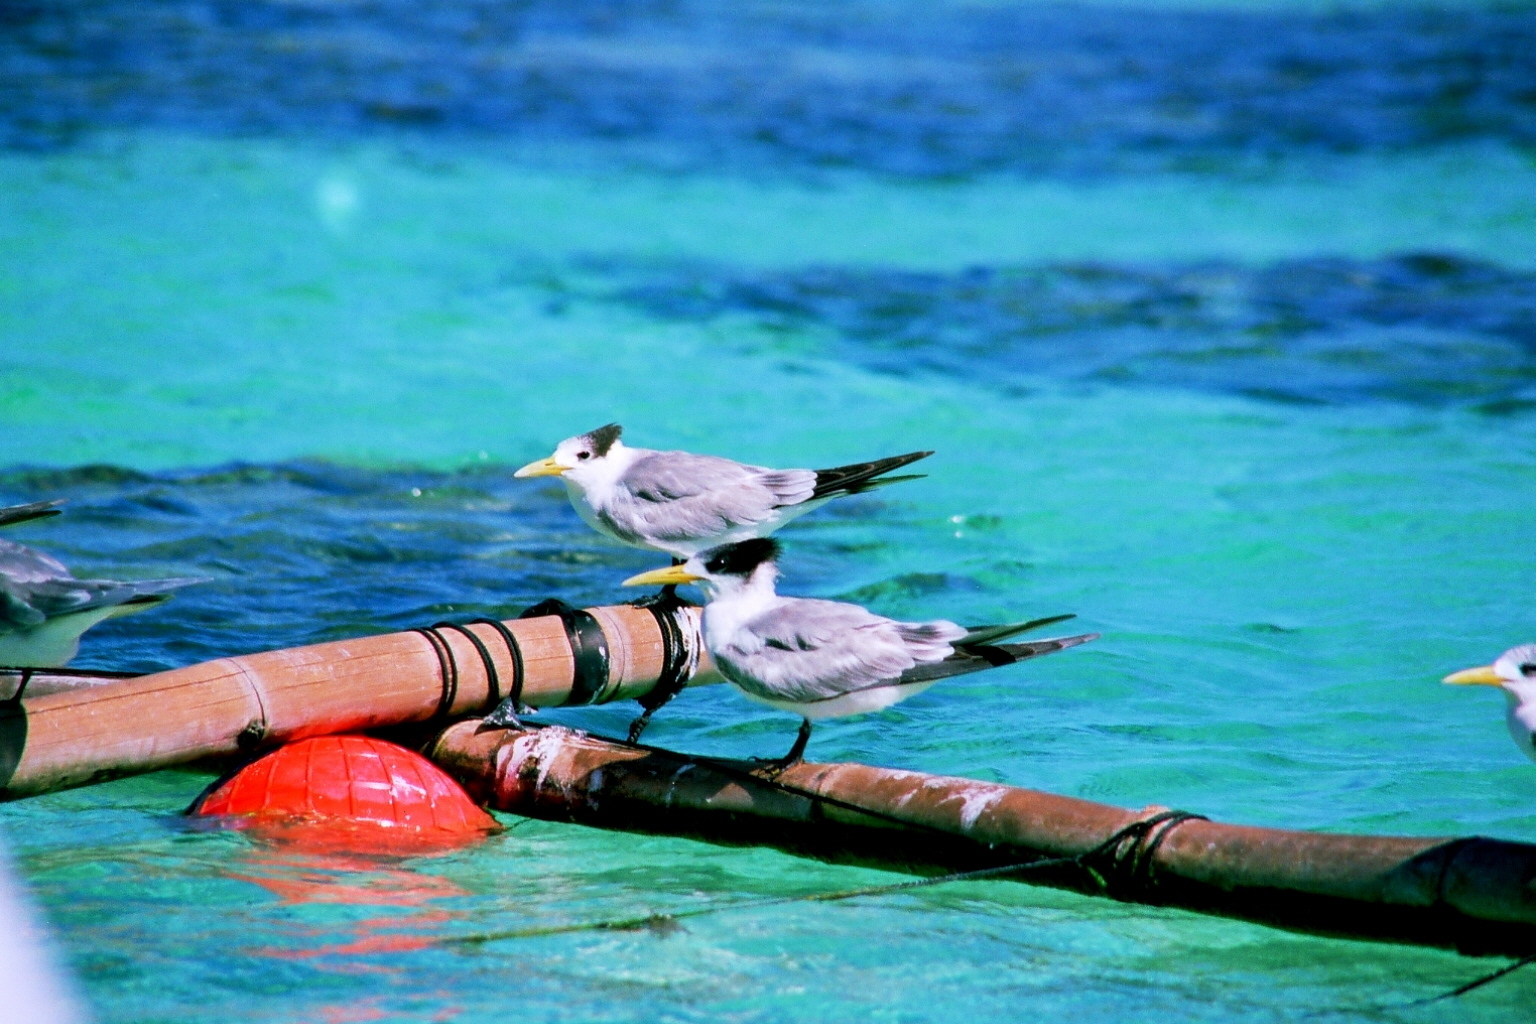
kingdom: Animalia
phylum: Chordata
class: Aves
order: Charadriiformes
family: Laridae
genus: Thalasseus
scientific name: Thalasseus bergii
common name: Greater crested tern
